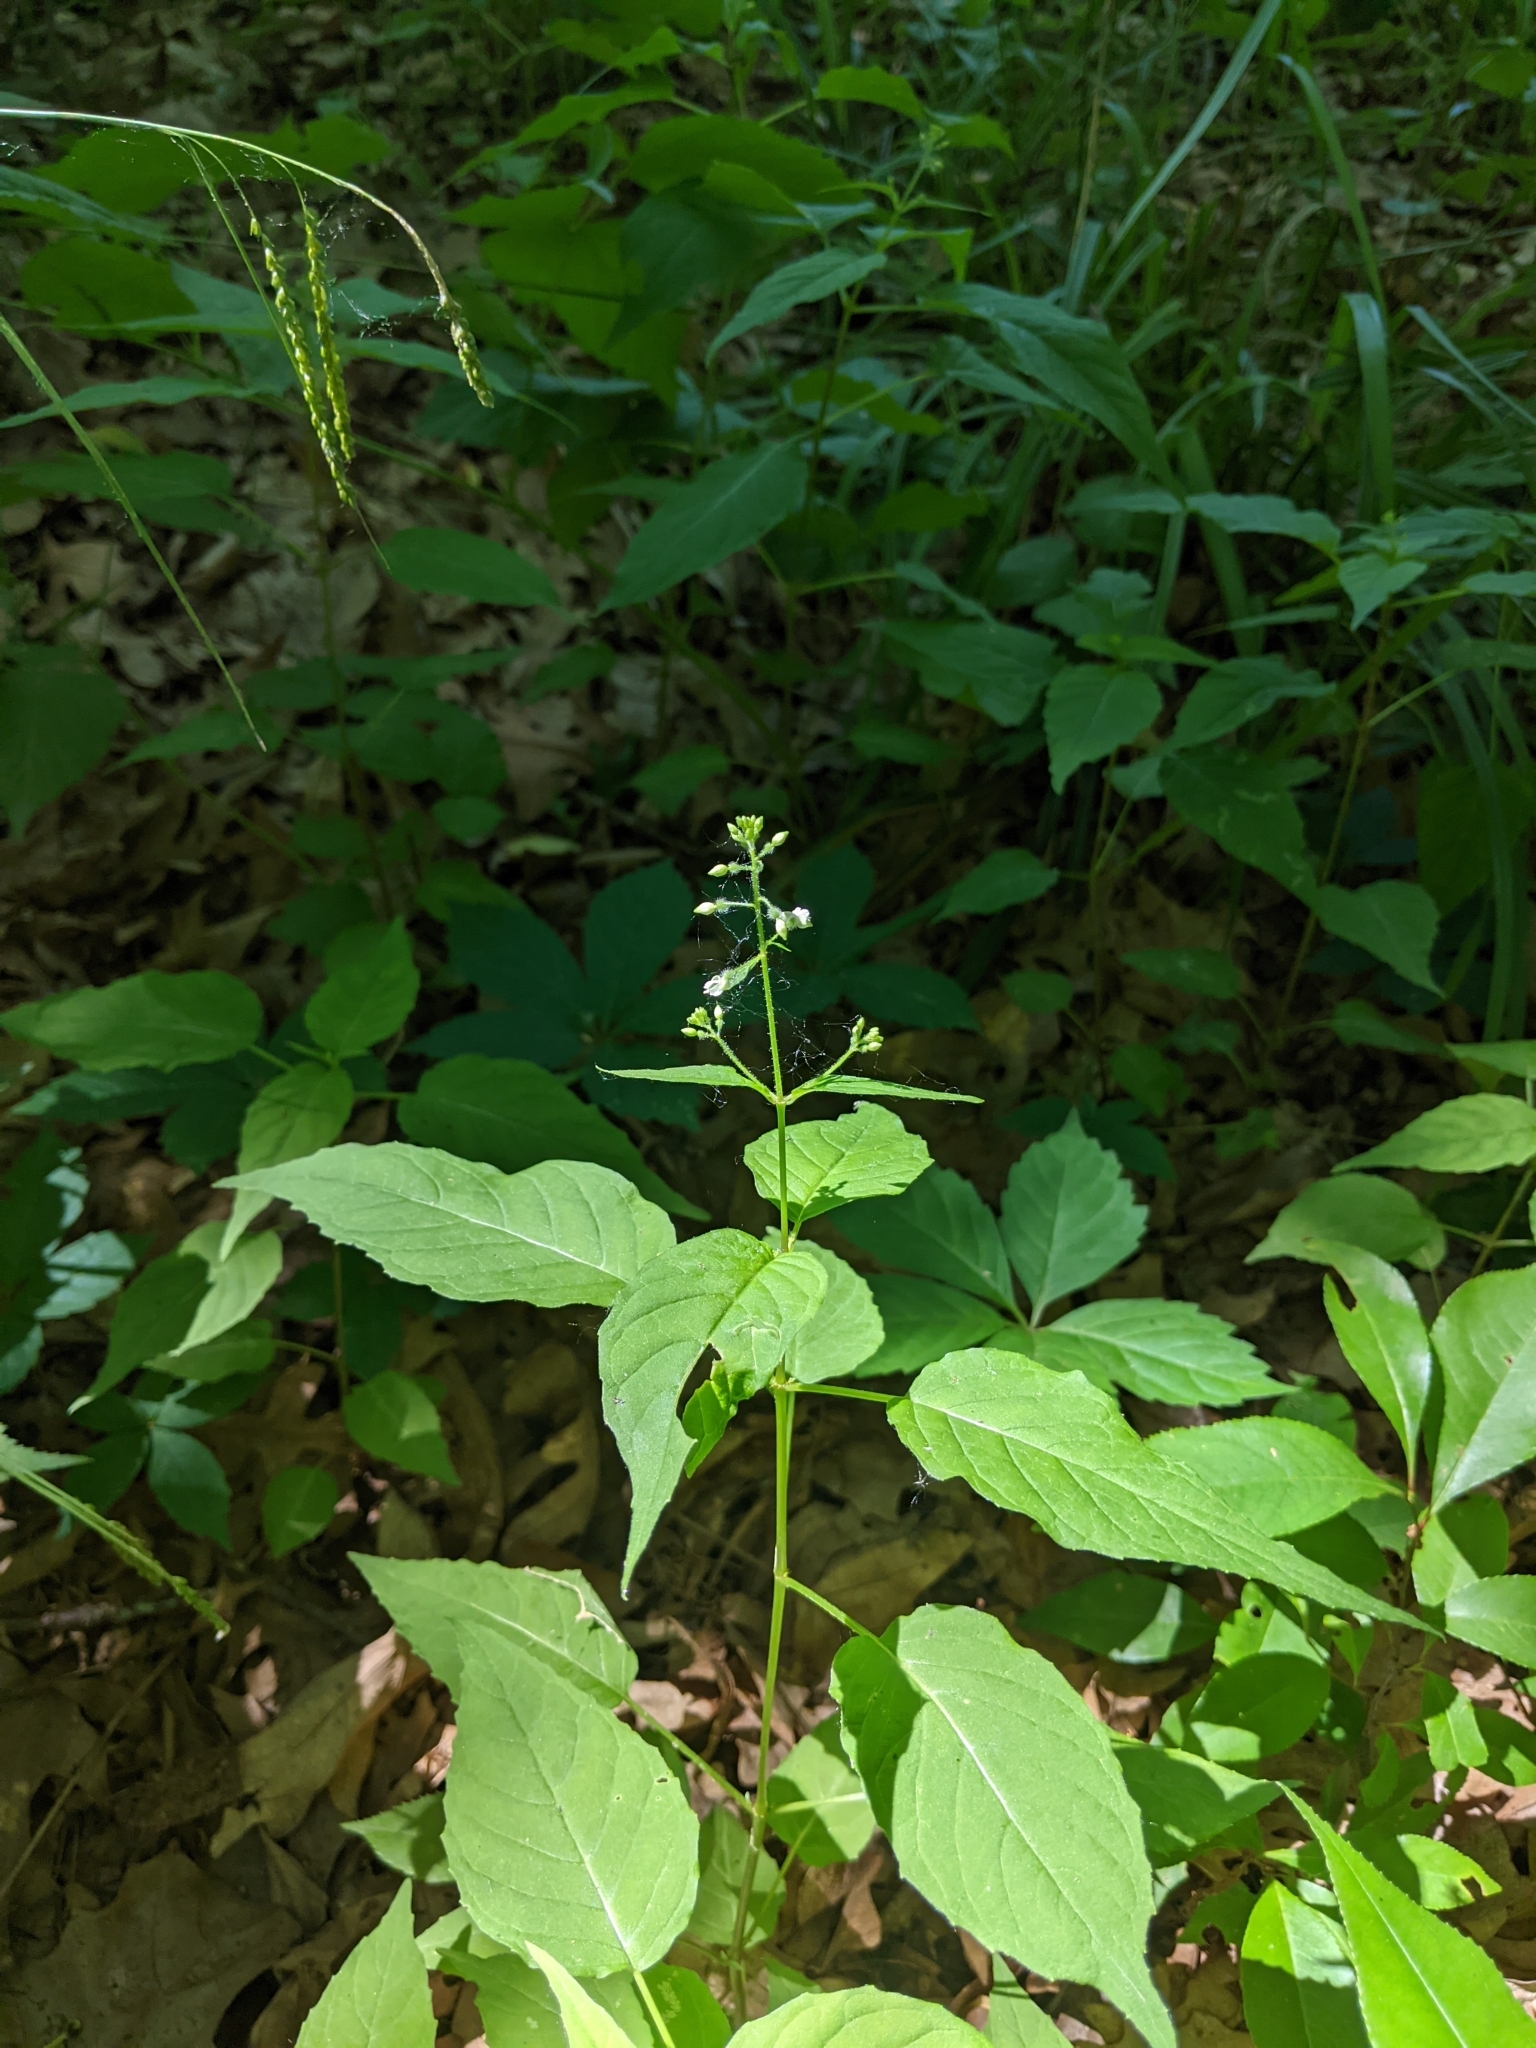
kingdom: Plantae
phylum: Tracheophyta
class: Magnoliopsida
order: Myrtales
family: Onagraceae
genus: Circaea
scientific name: Circaea canadensis
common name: Broad-leaved enchanter's nightshade
